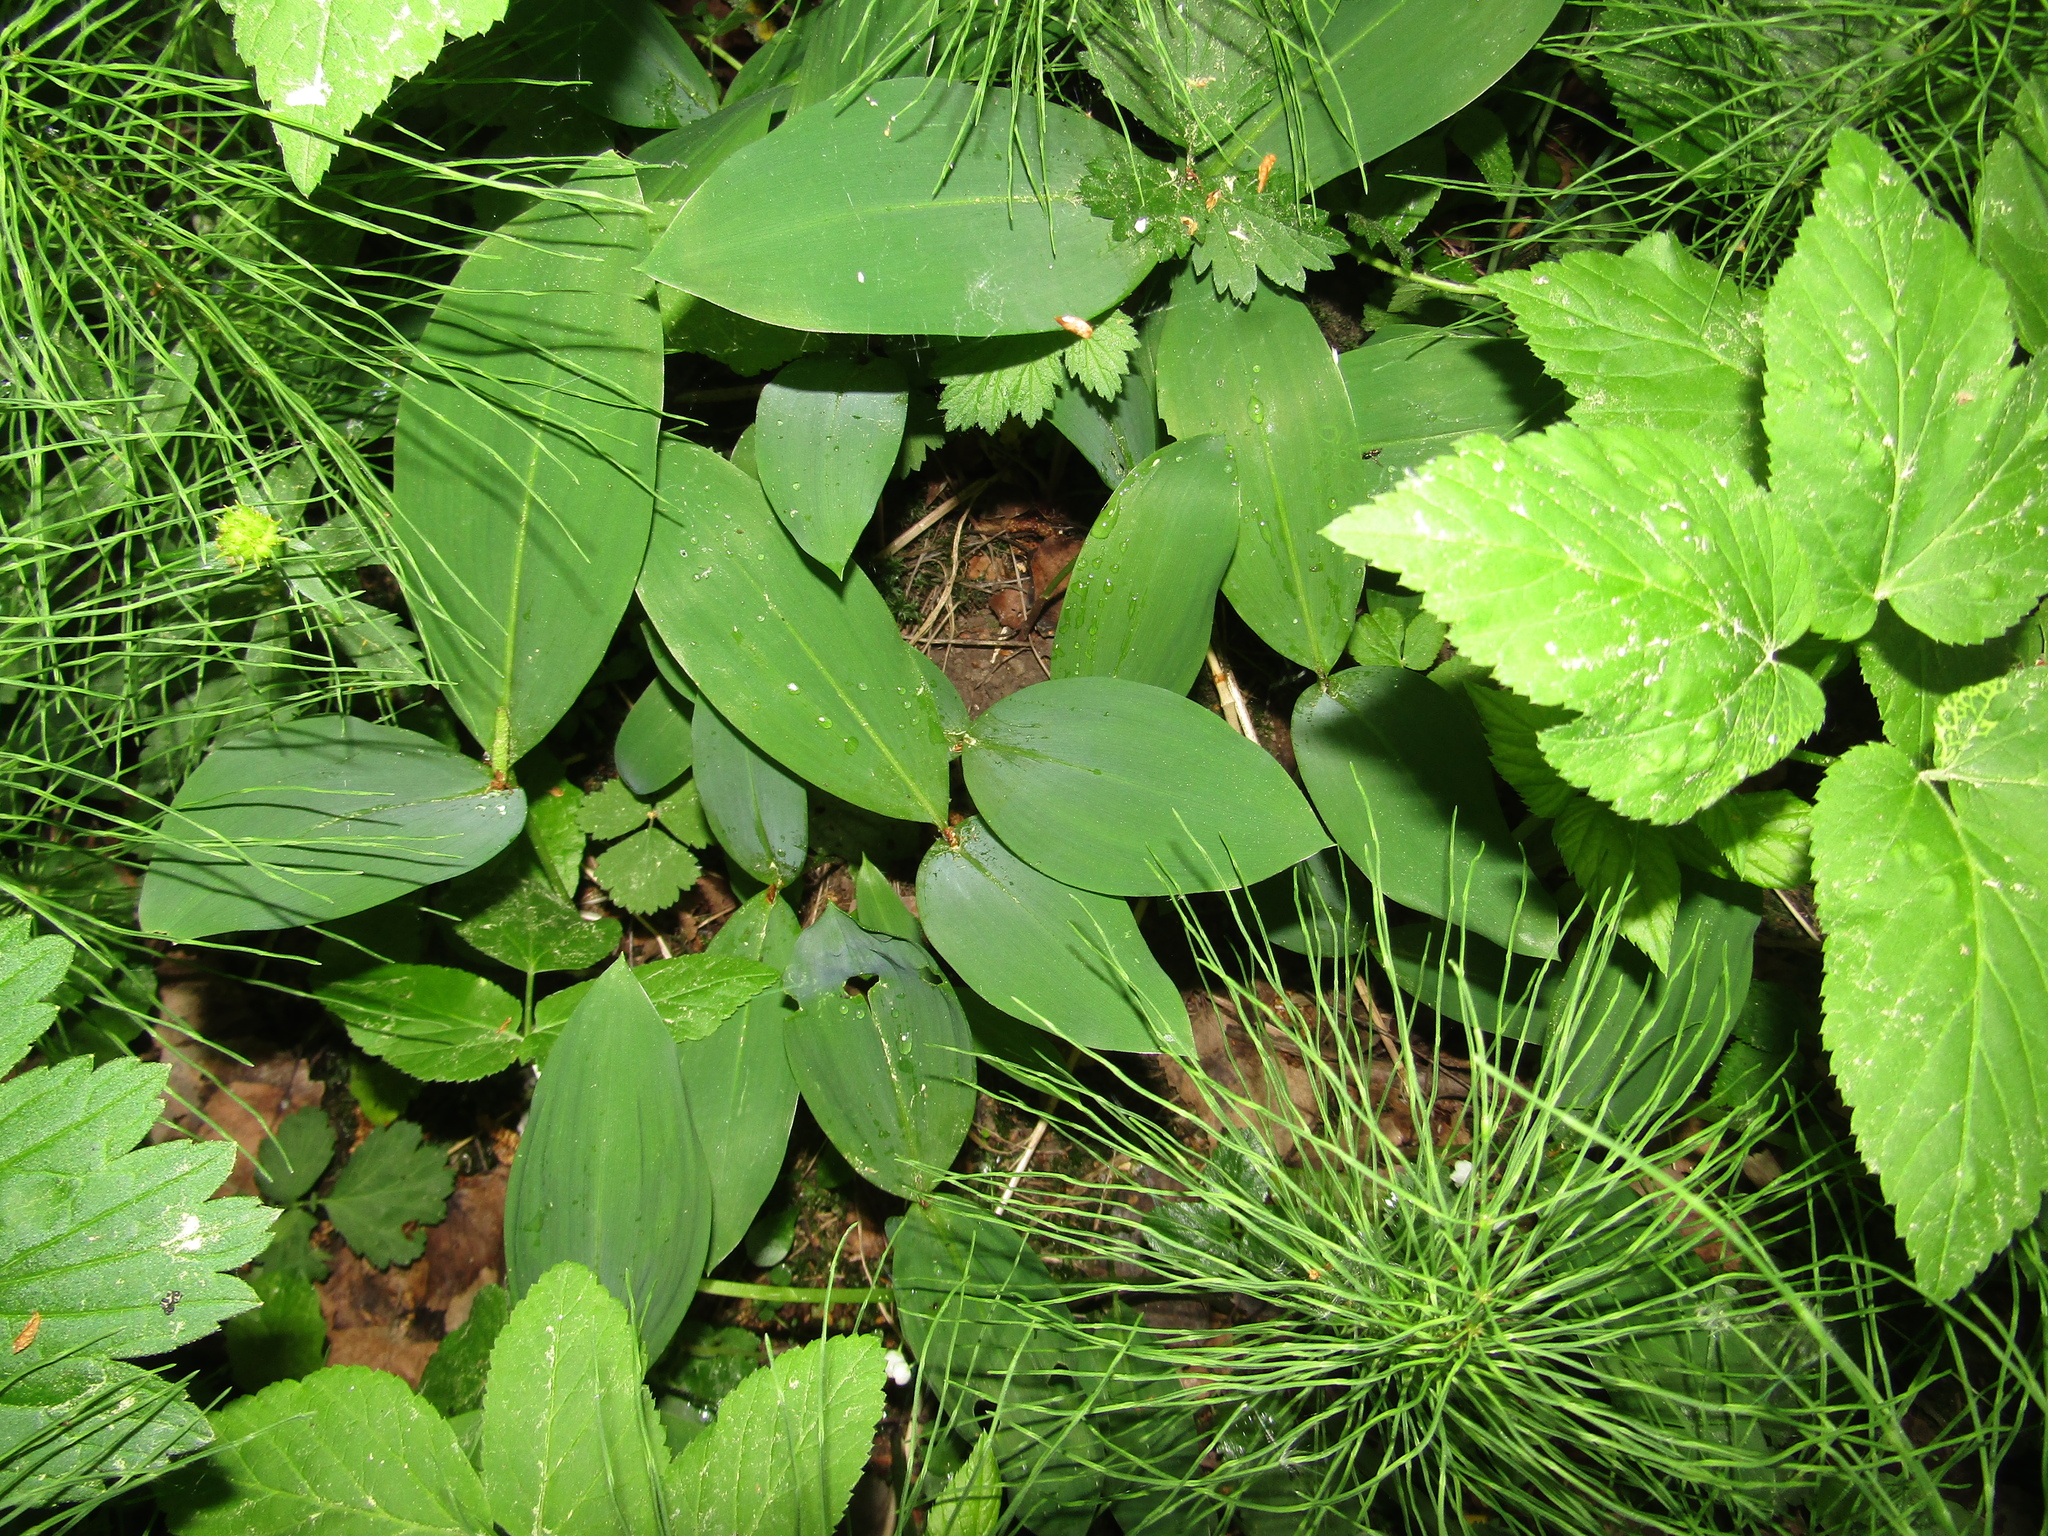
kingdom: Plantae
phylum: Tracheophyta
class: Liliopsida
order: Asparagales
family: Asparagaceae
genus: Convallaria
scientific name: Convallaria majalis
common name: Lily-of-the-valley
